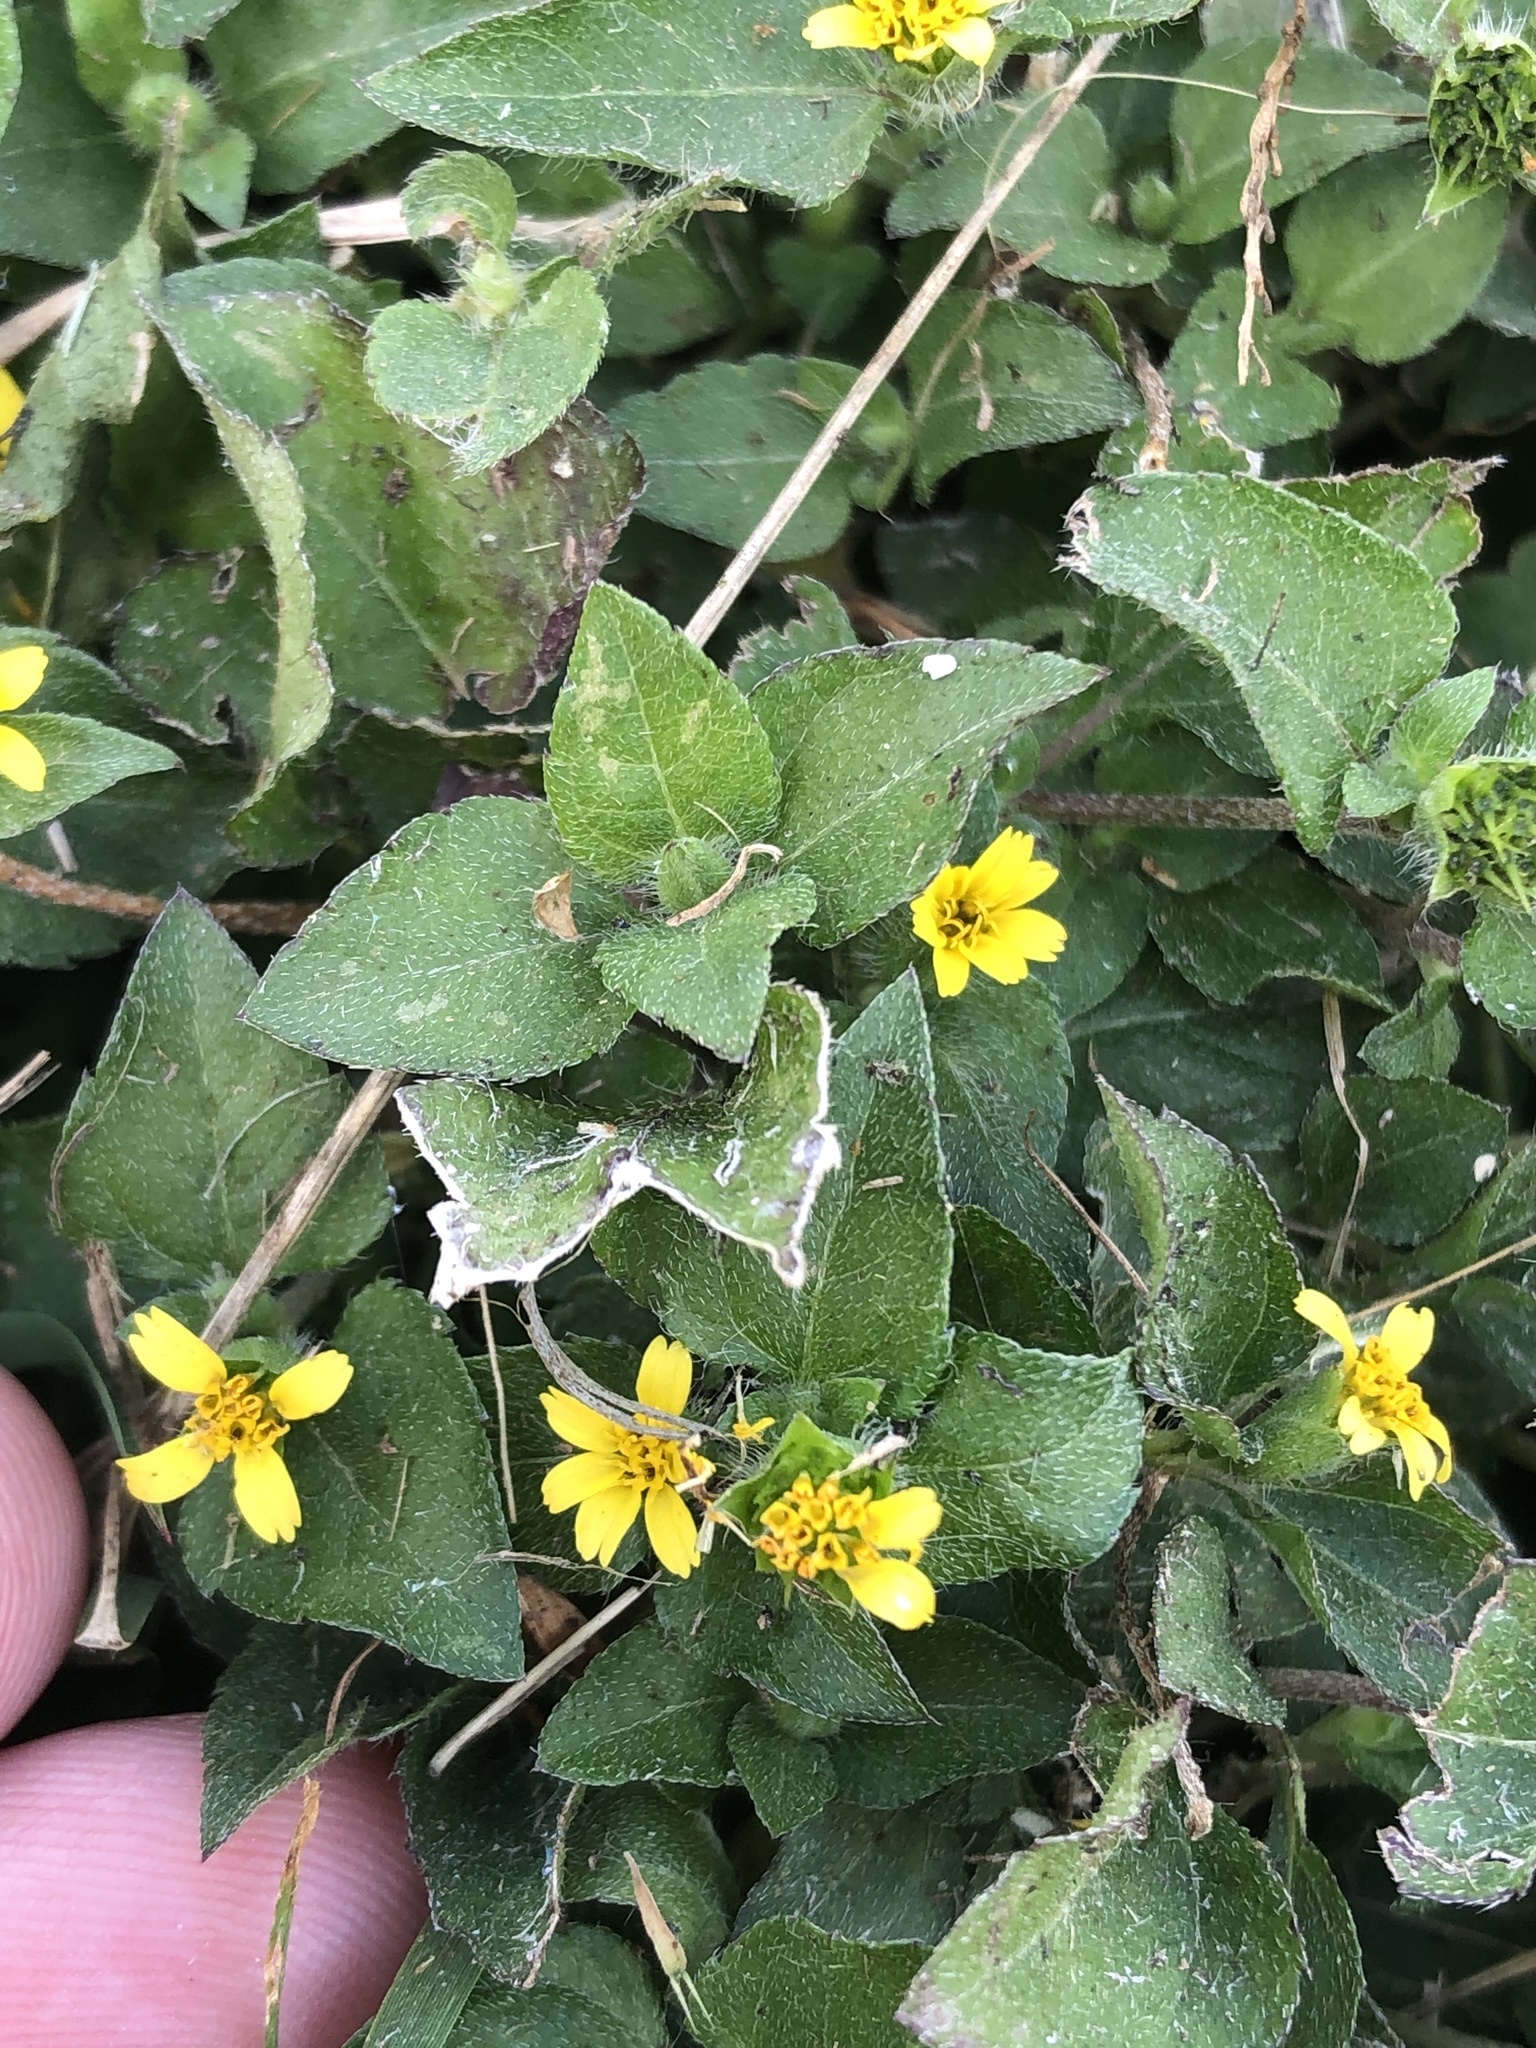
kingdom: Plantae
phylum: Tracheophyta
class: Magnoliopsida
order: Asterales
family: Asteraceae
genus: Calyptocarpus
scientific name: Calyptocarpus vialis
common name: Straggler daisy
